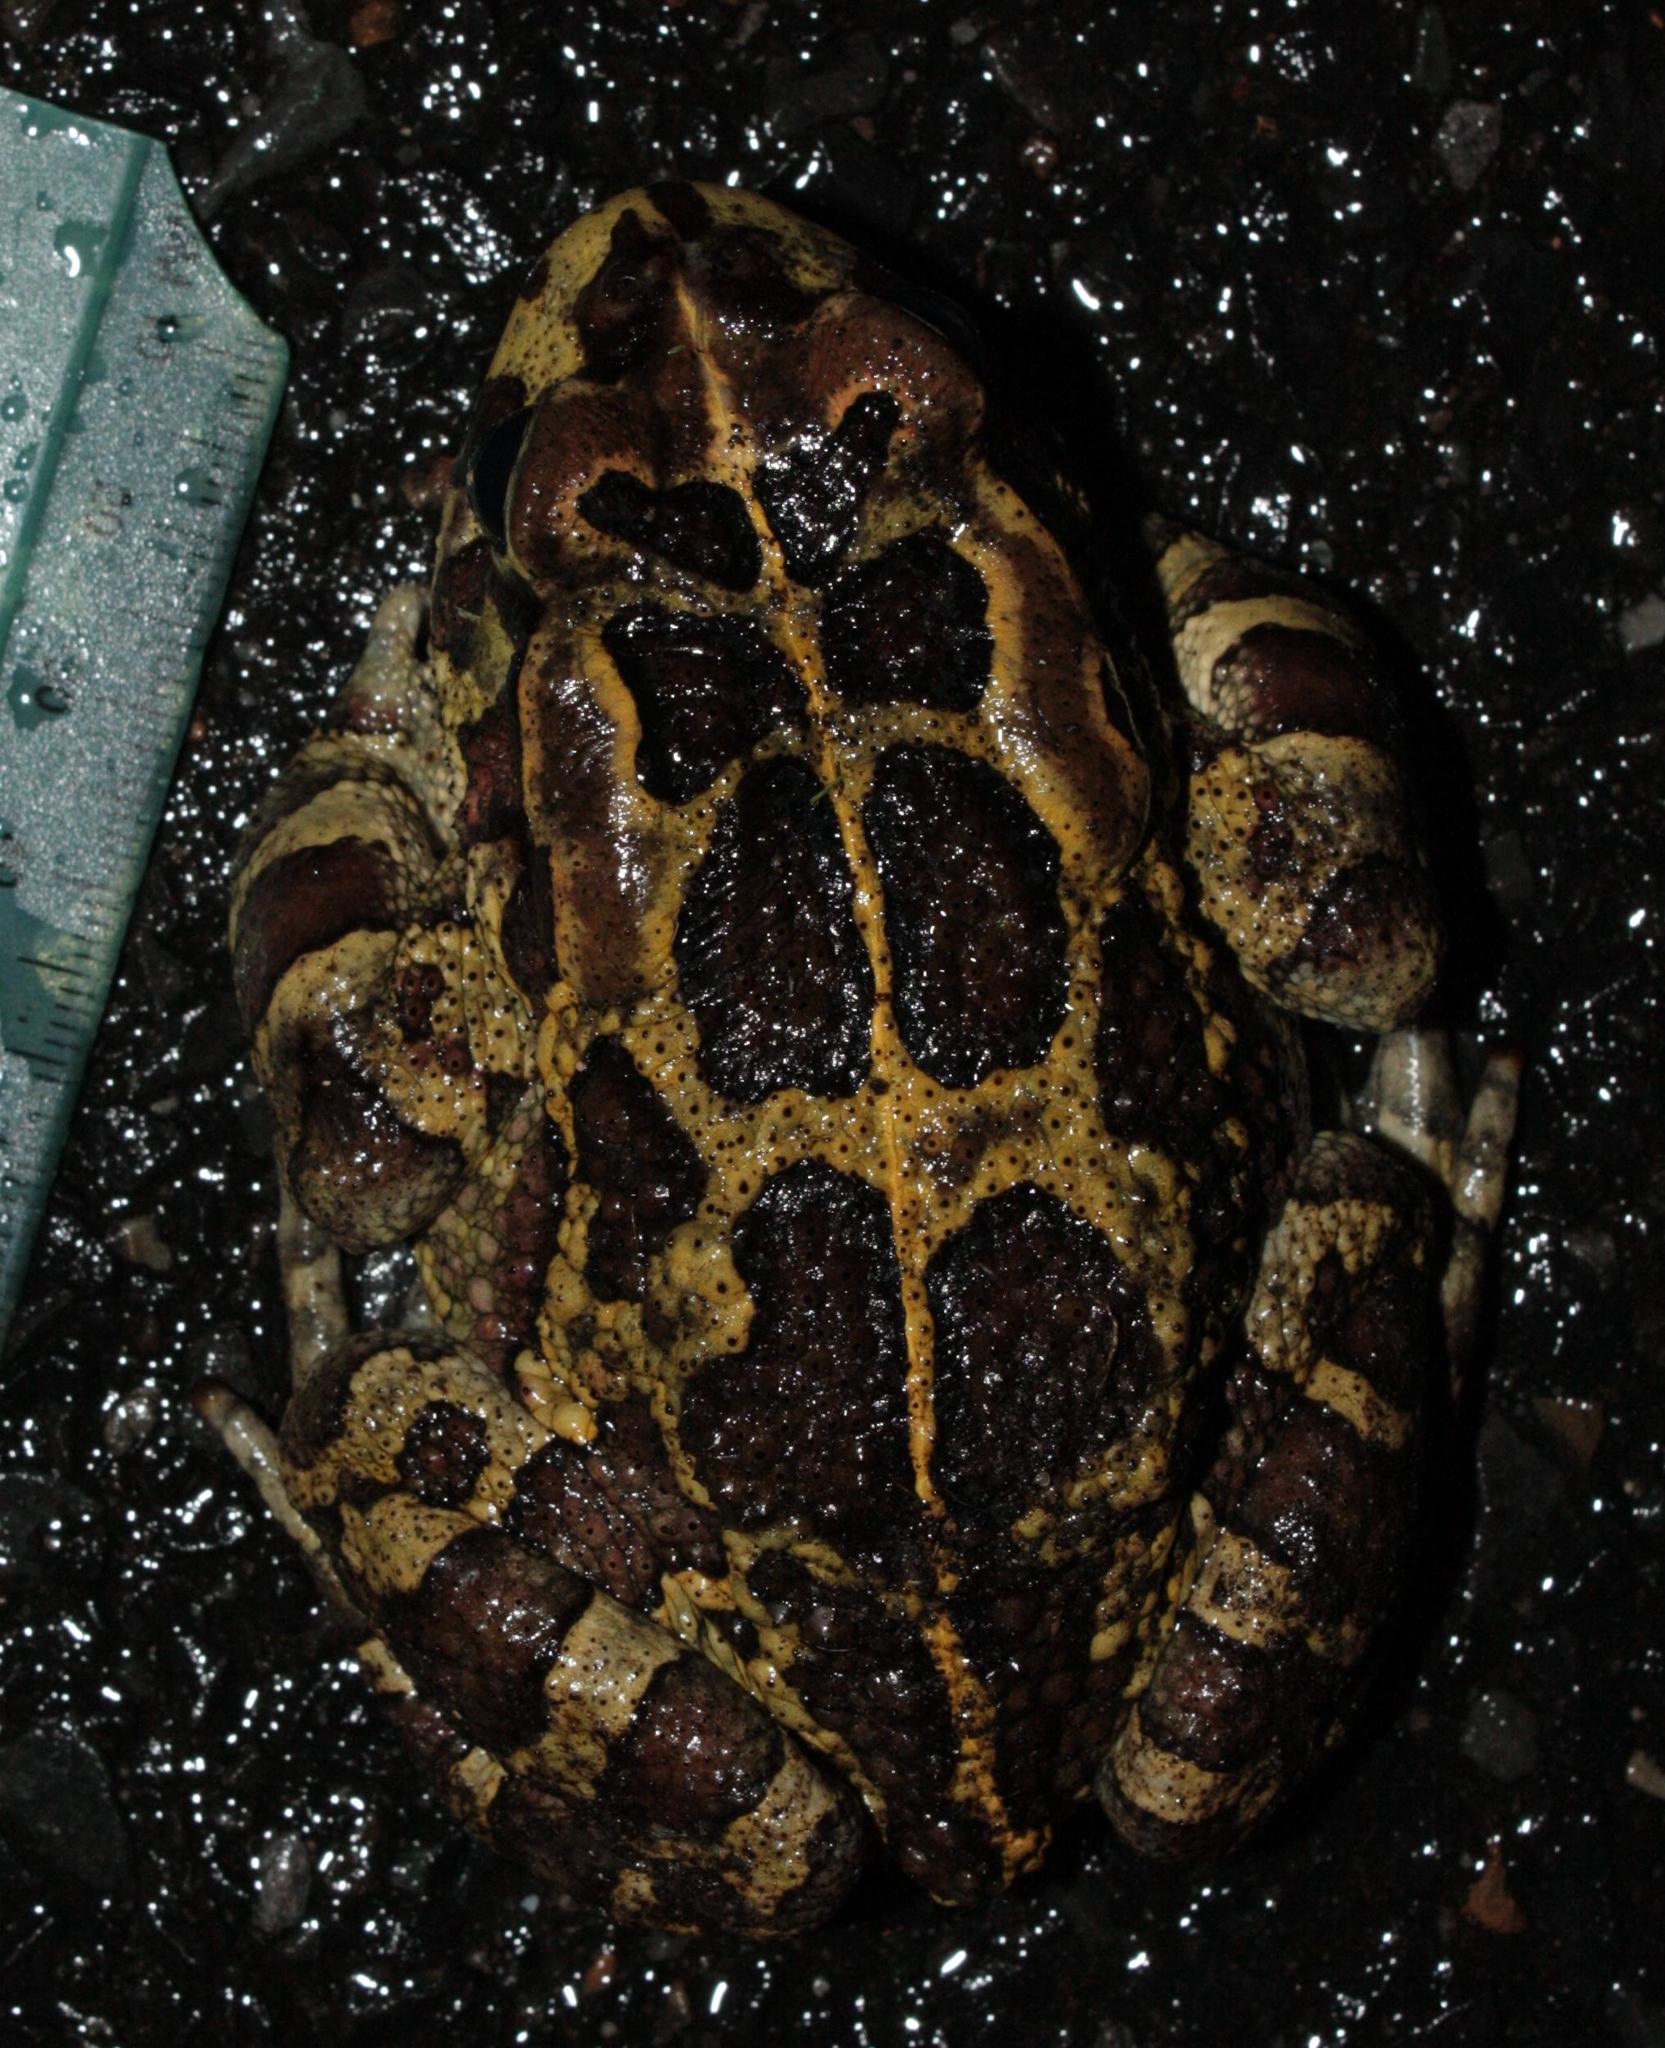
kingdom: Animalia
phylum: Chordata
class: Amphibia
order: Anura
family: Bufonidae
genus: Sclerophrys
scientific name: Sclerophrys pantherina
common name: Panther toad
